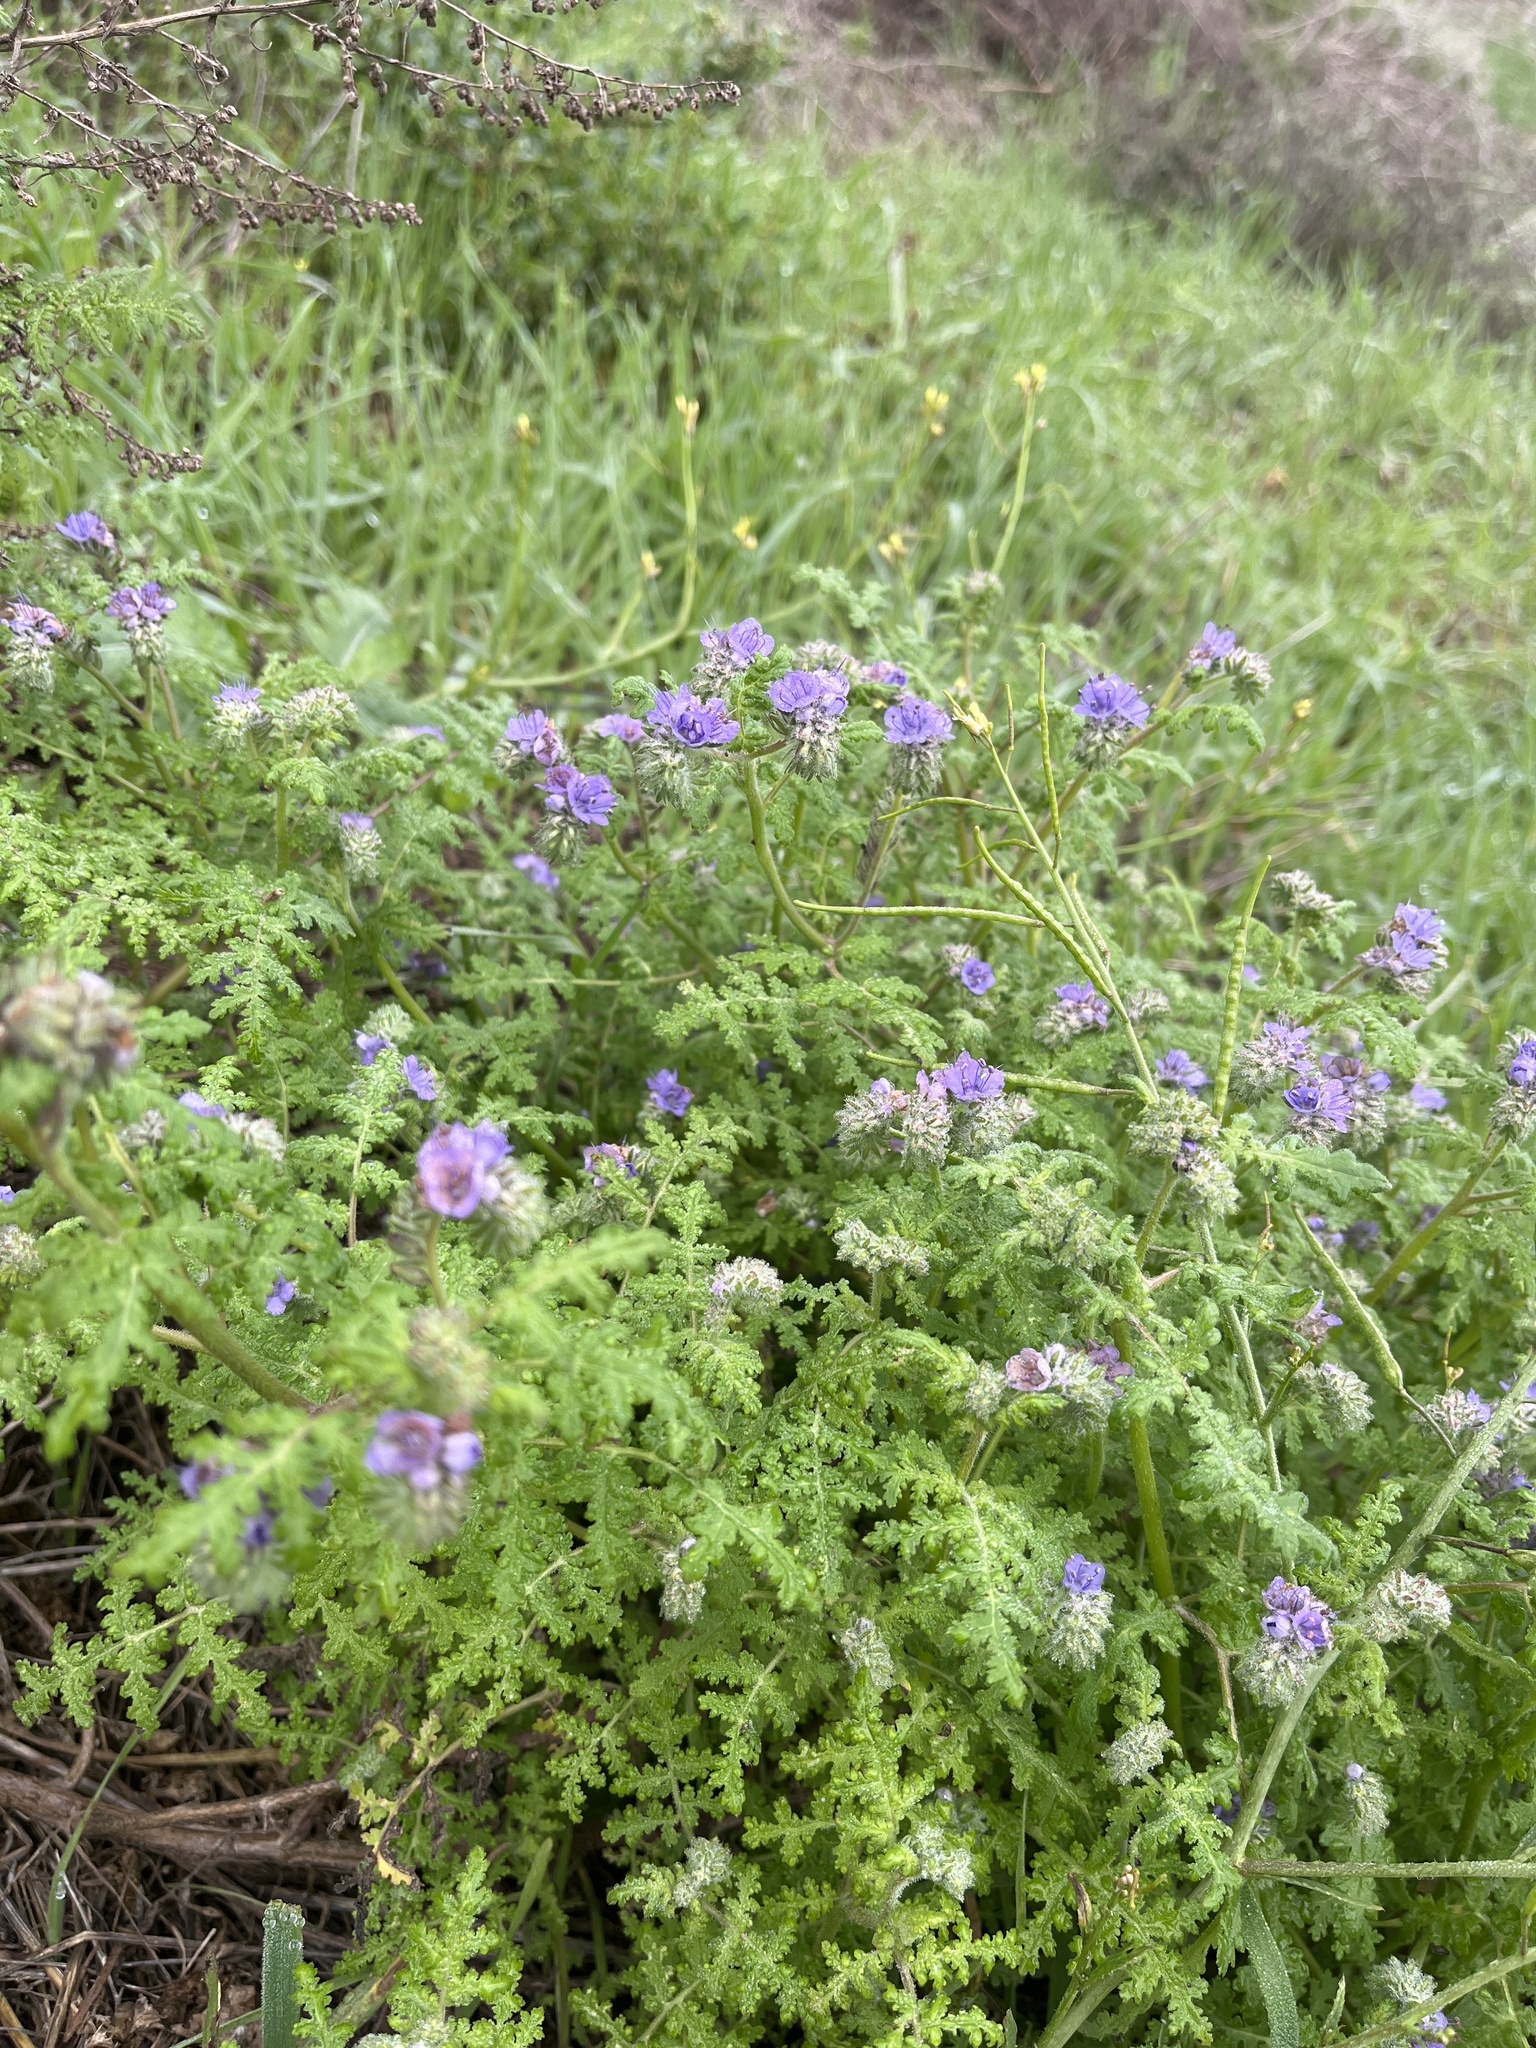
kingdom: Plantae
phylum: Tracheophyta
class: Magnoliopsida
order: Boraginales
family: Hydrophyllaceae
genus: Phacelia
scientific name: Phacelia distans
